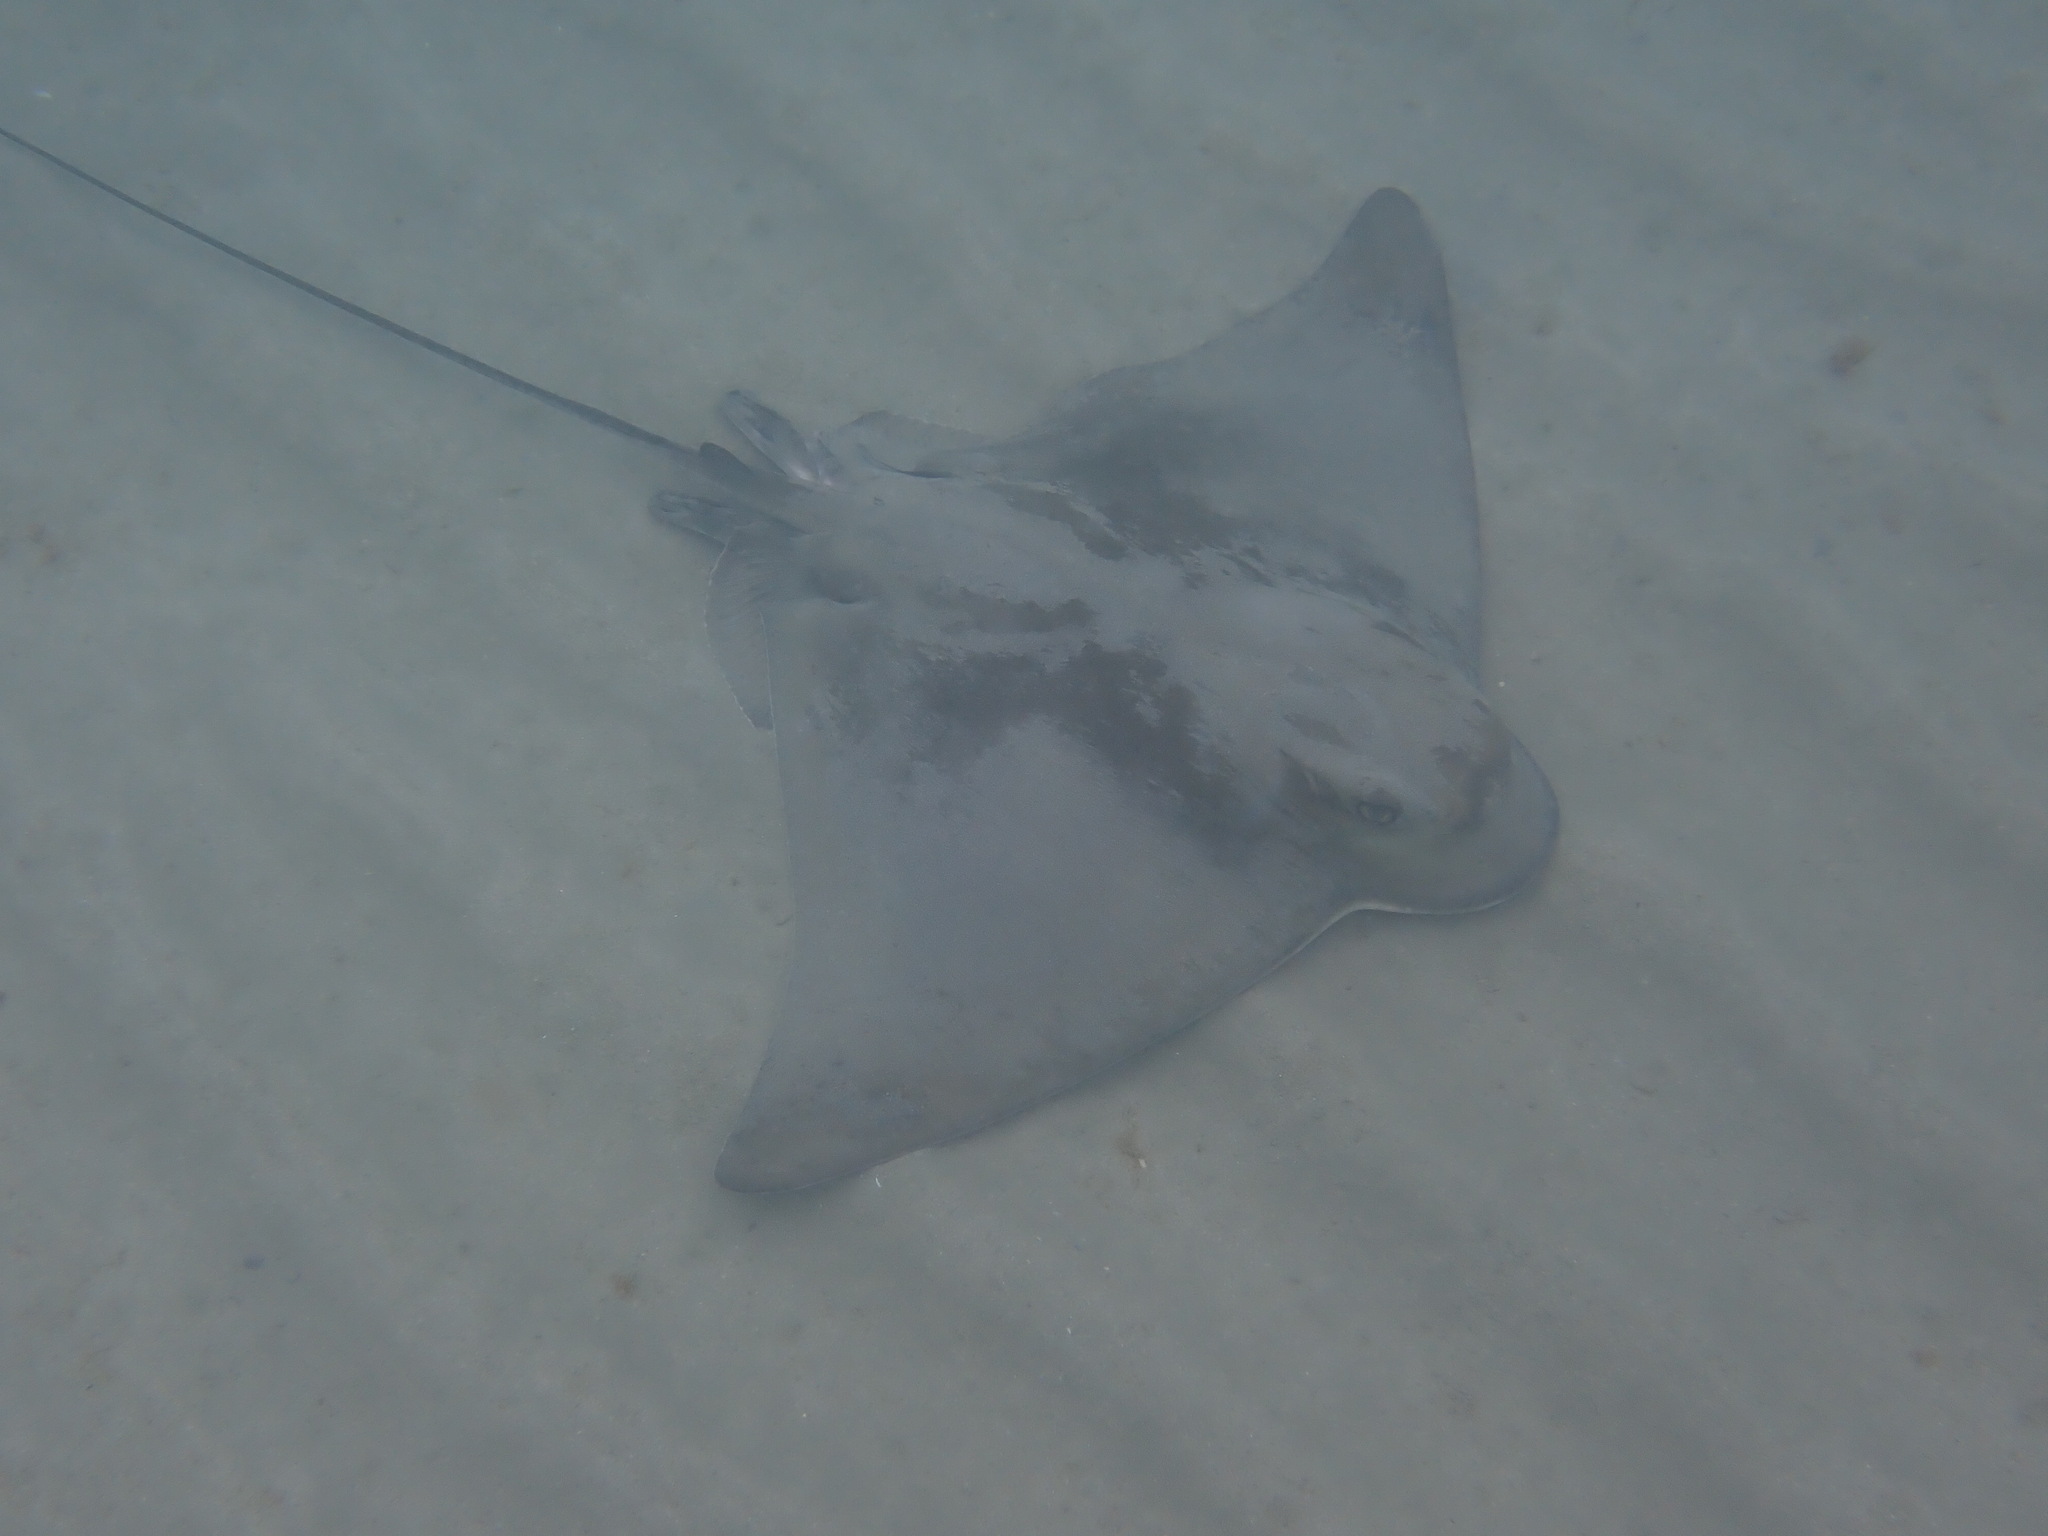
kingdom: Animalia
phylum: Chordata
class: Elasmobranchii
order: Myliobatiformes
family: Myliobatidae
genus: Myliobatis
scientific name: Myliobatis tenuicaudatus
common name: Eagle ray
